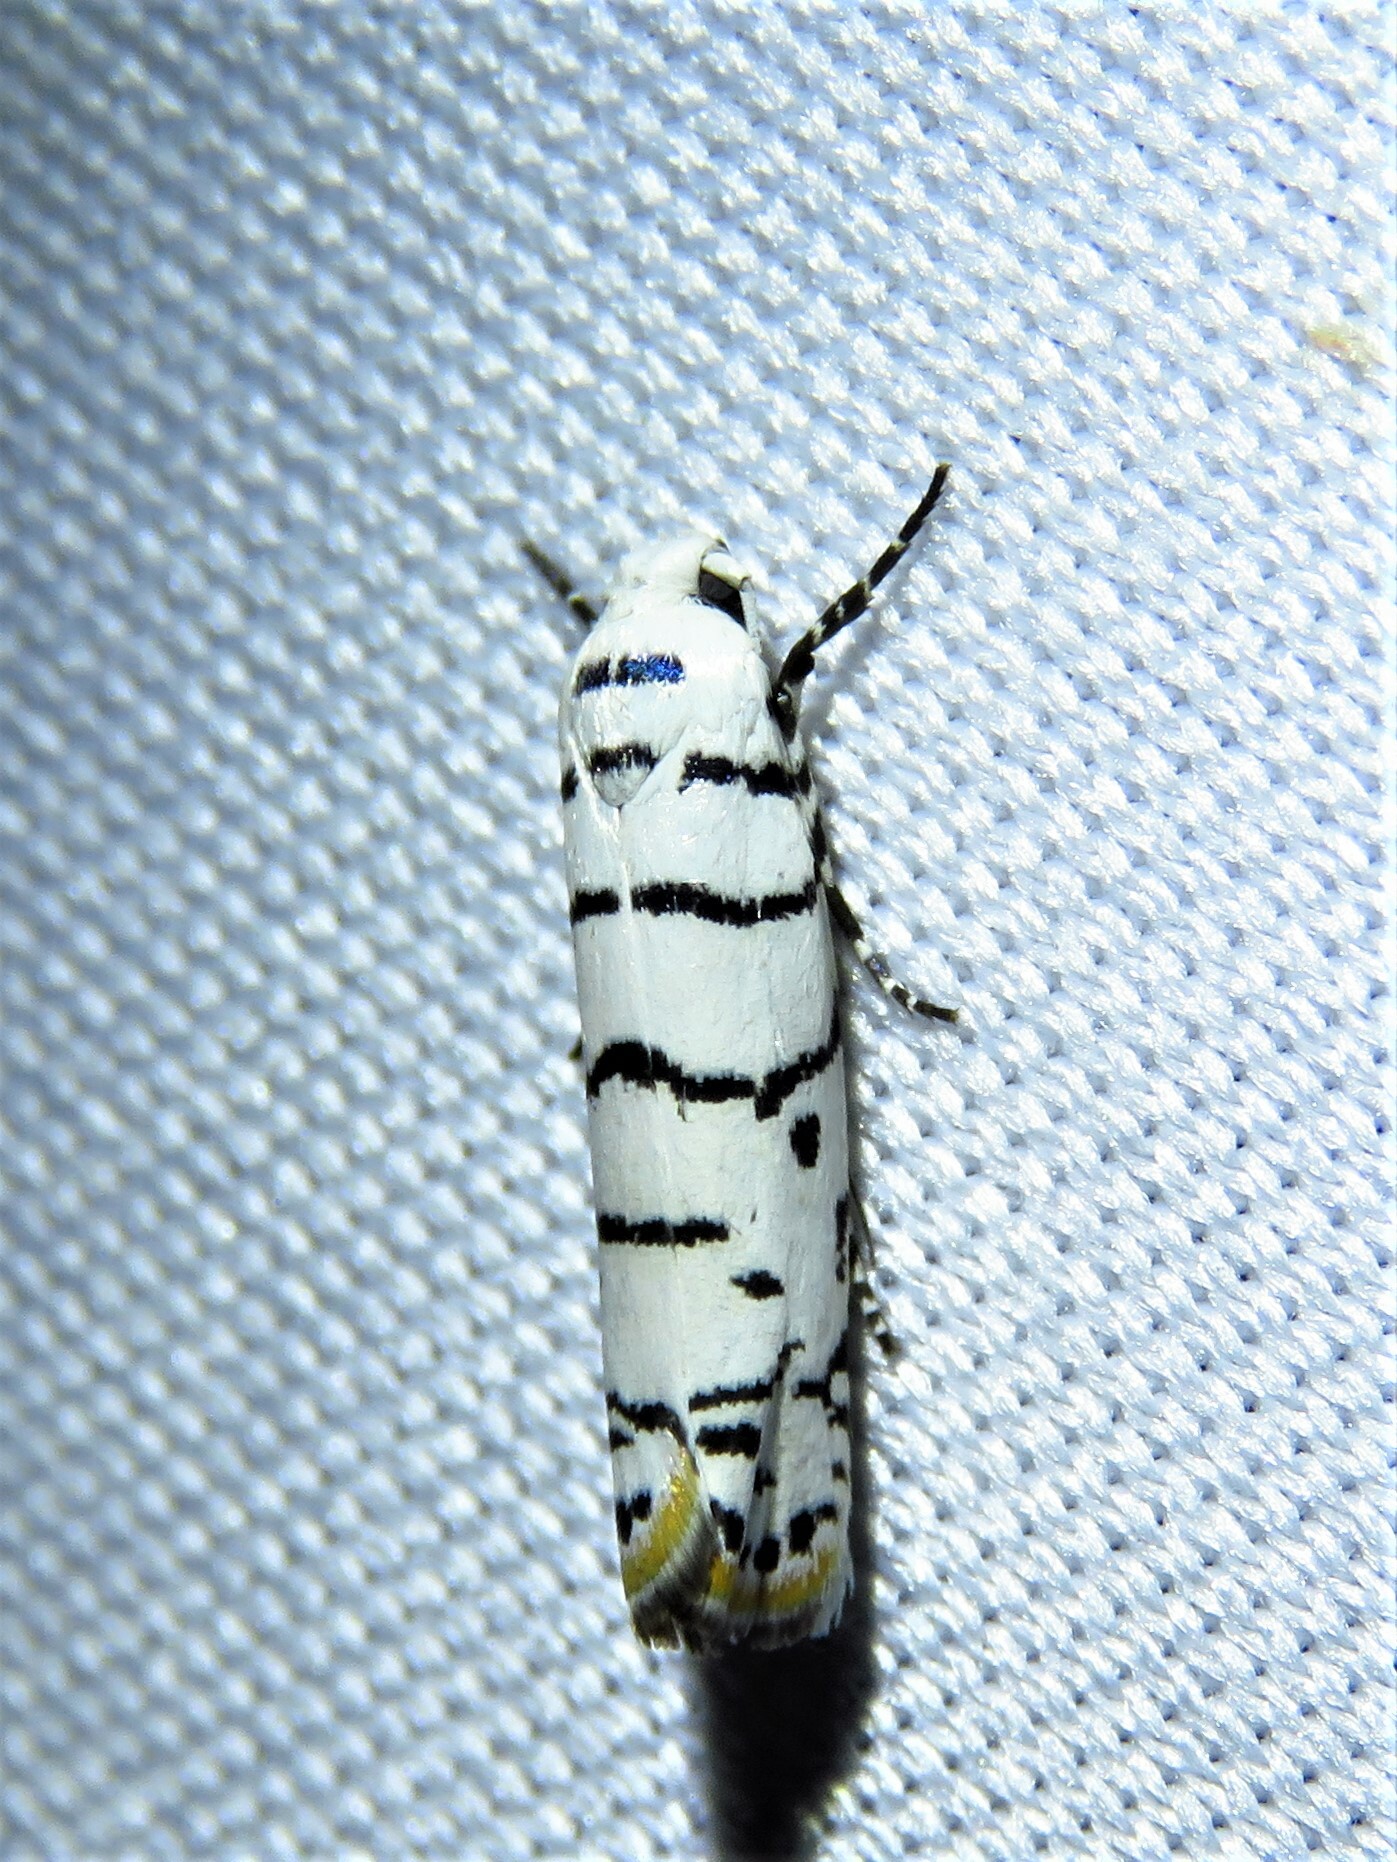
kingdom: Animalia
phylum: Arthropoda
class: Insecta
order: Lepidoptera
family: Ethmiidae
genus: Ethmia
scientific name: Ethmia delliella
